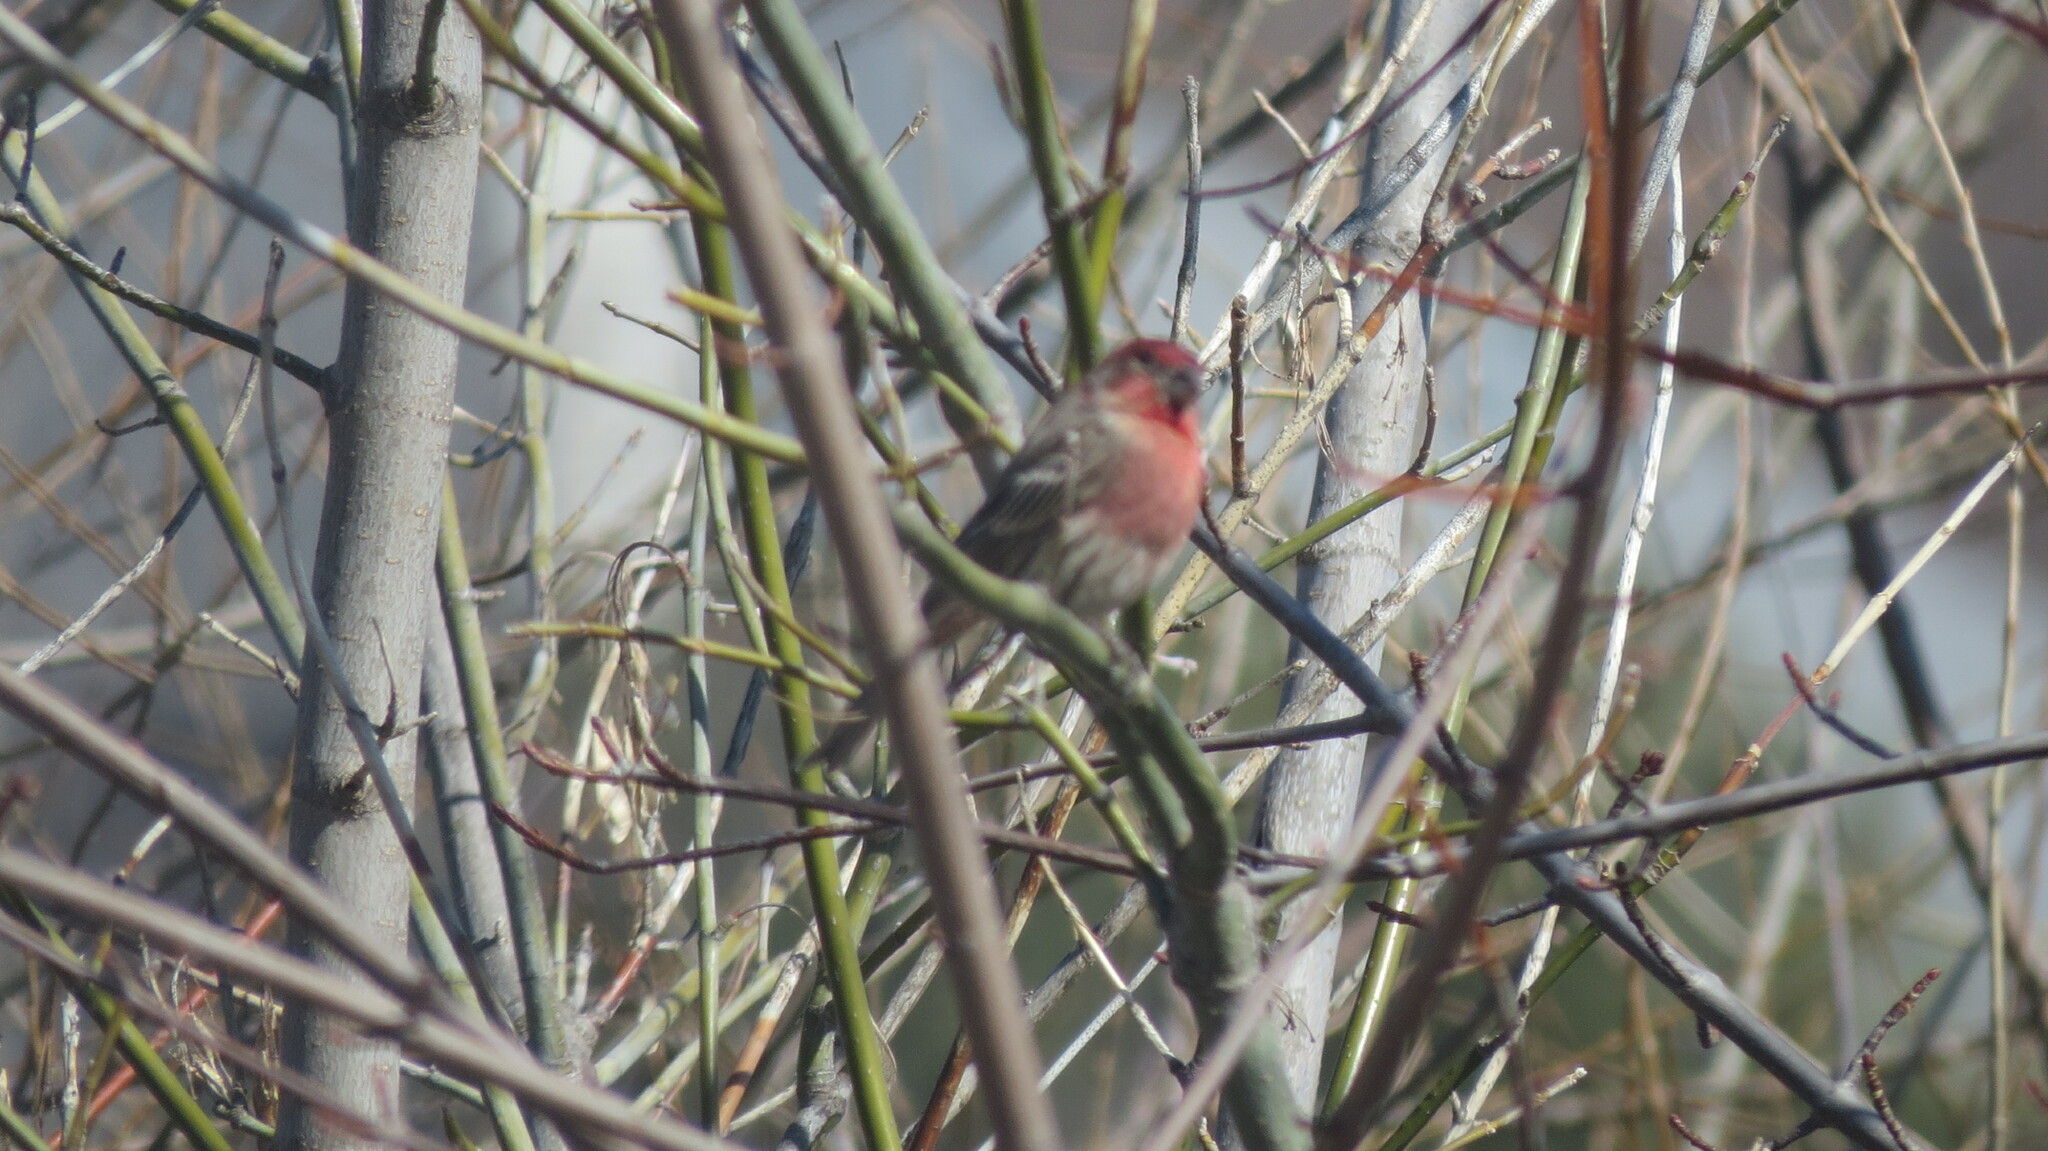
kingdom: Animalia
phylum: Chordata
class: Aves
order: Passeriformes
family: Fringillidae
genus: Haemorhous
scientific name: Haemorhous mexicanus
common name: House finch
